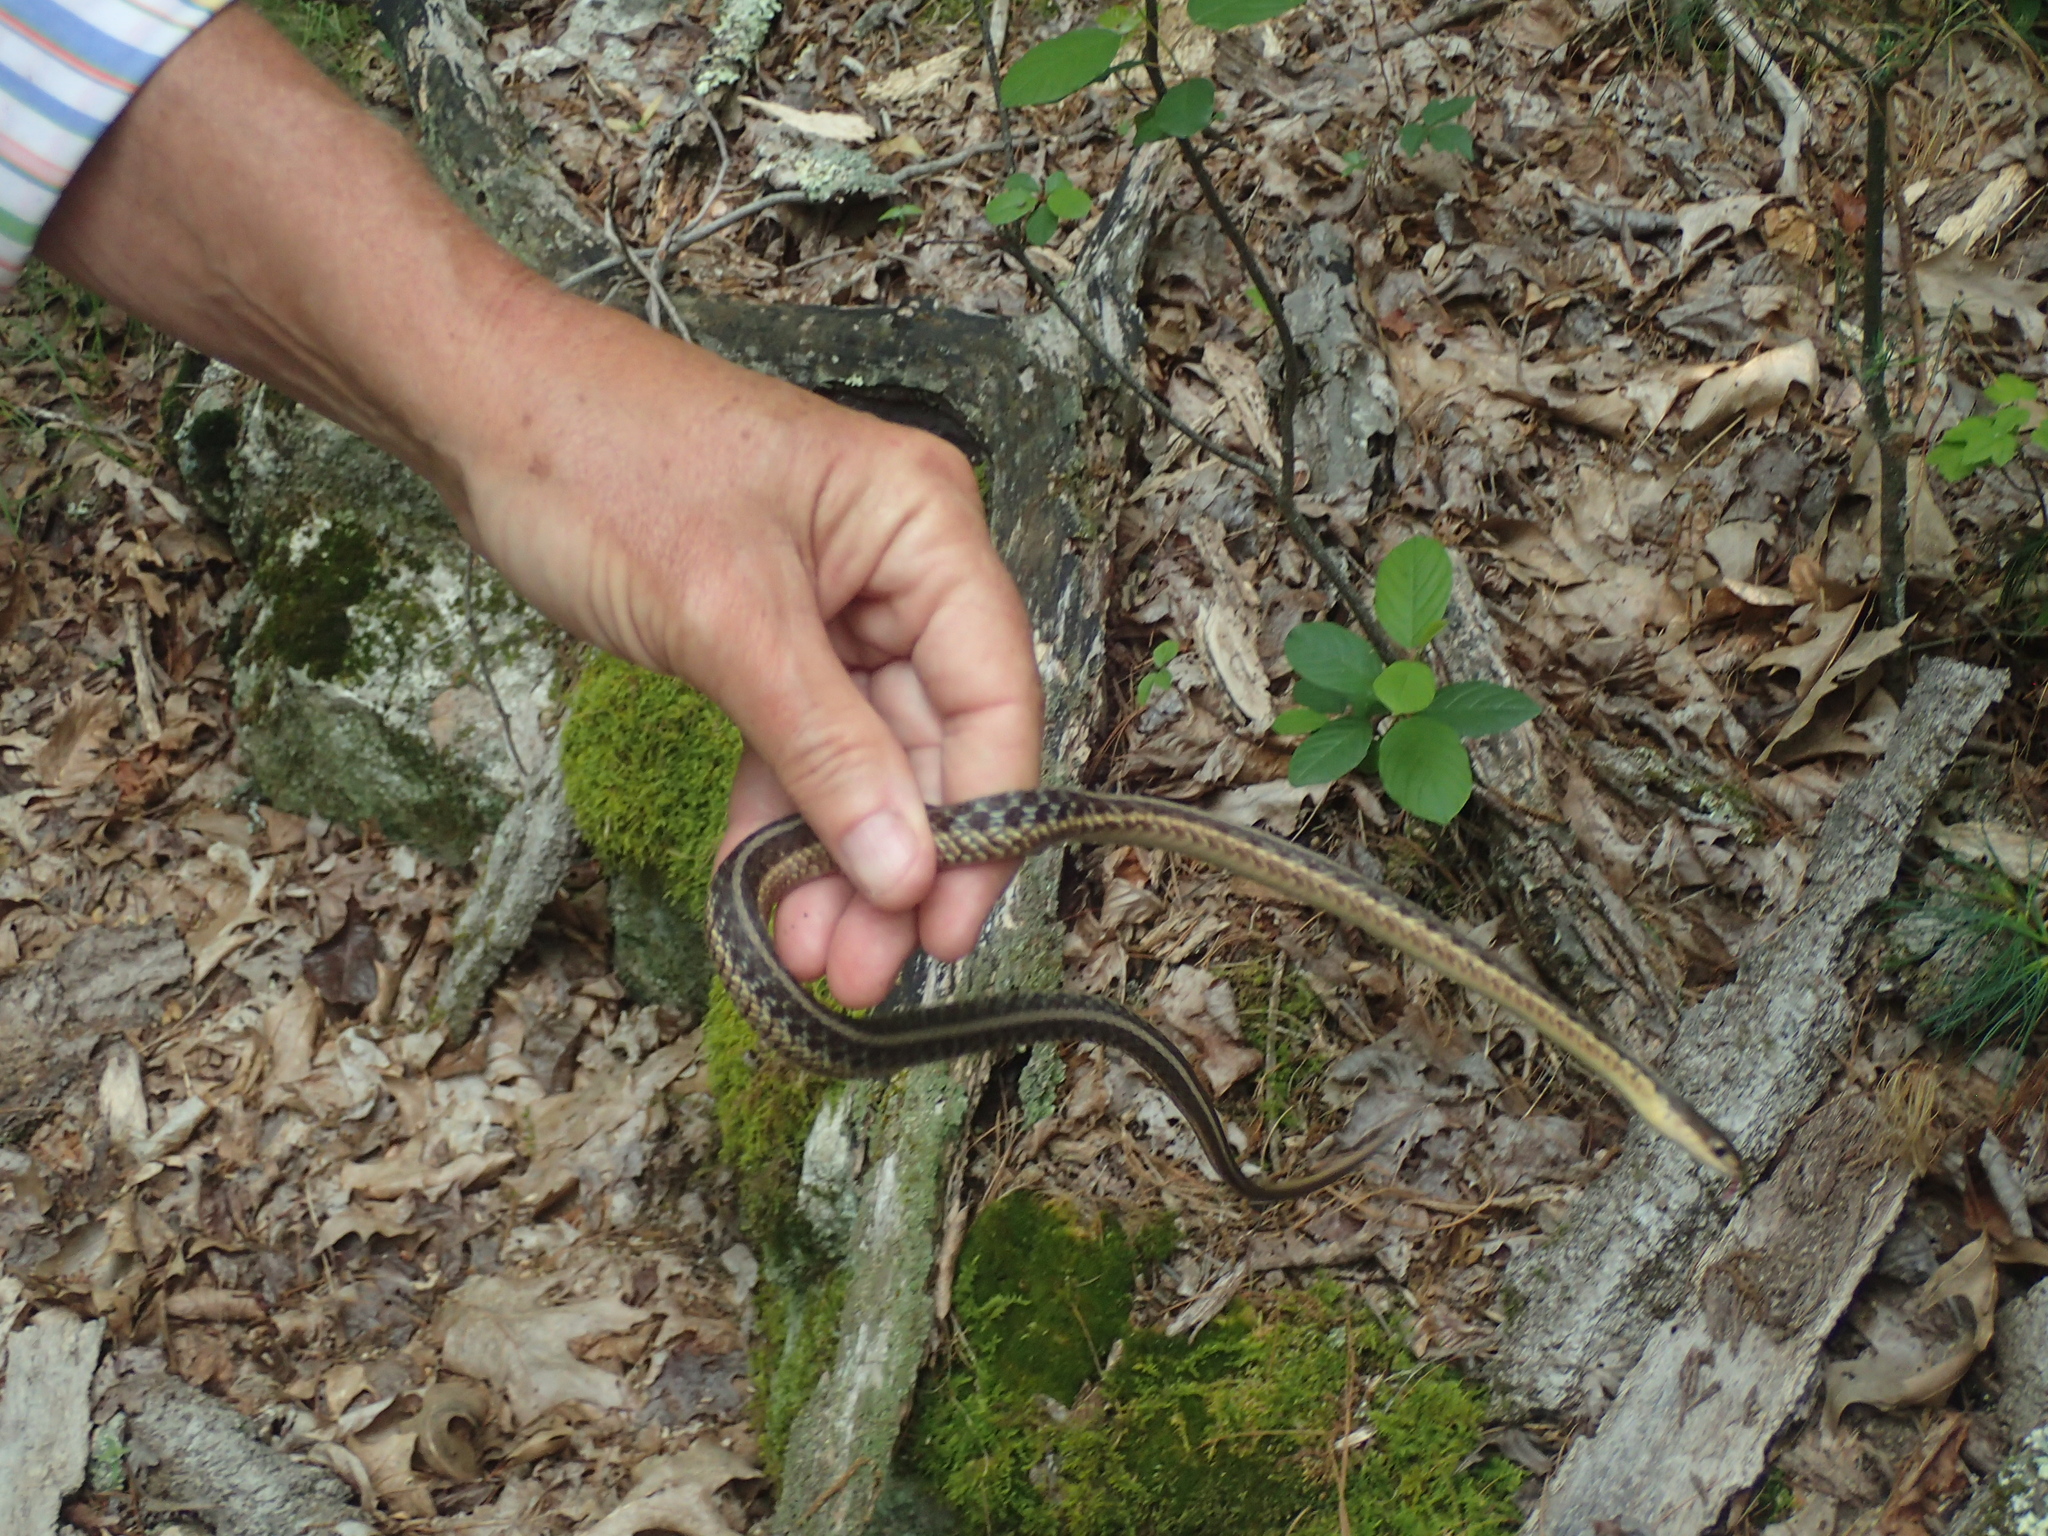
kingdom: Animalia
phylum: Chordata
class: Squamata
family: Colubridae
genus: Thamnophis
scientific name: Thamnophis sirtalis
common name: Common garter snake
